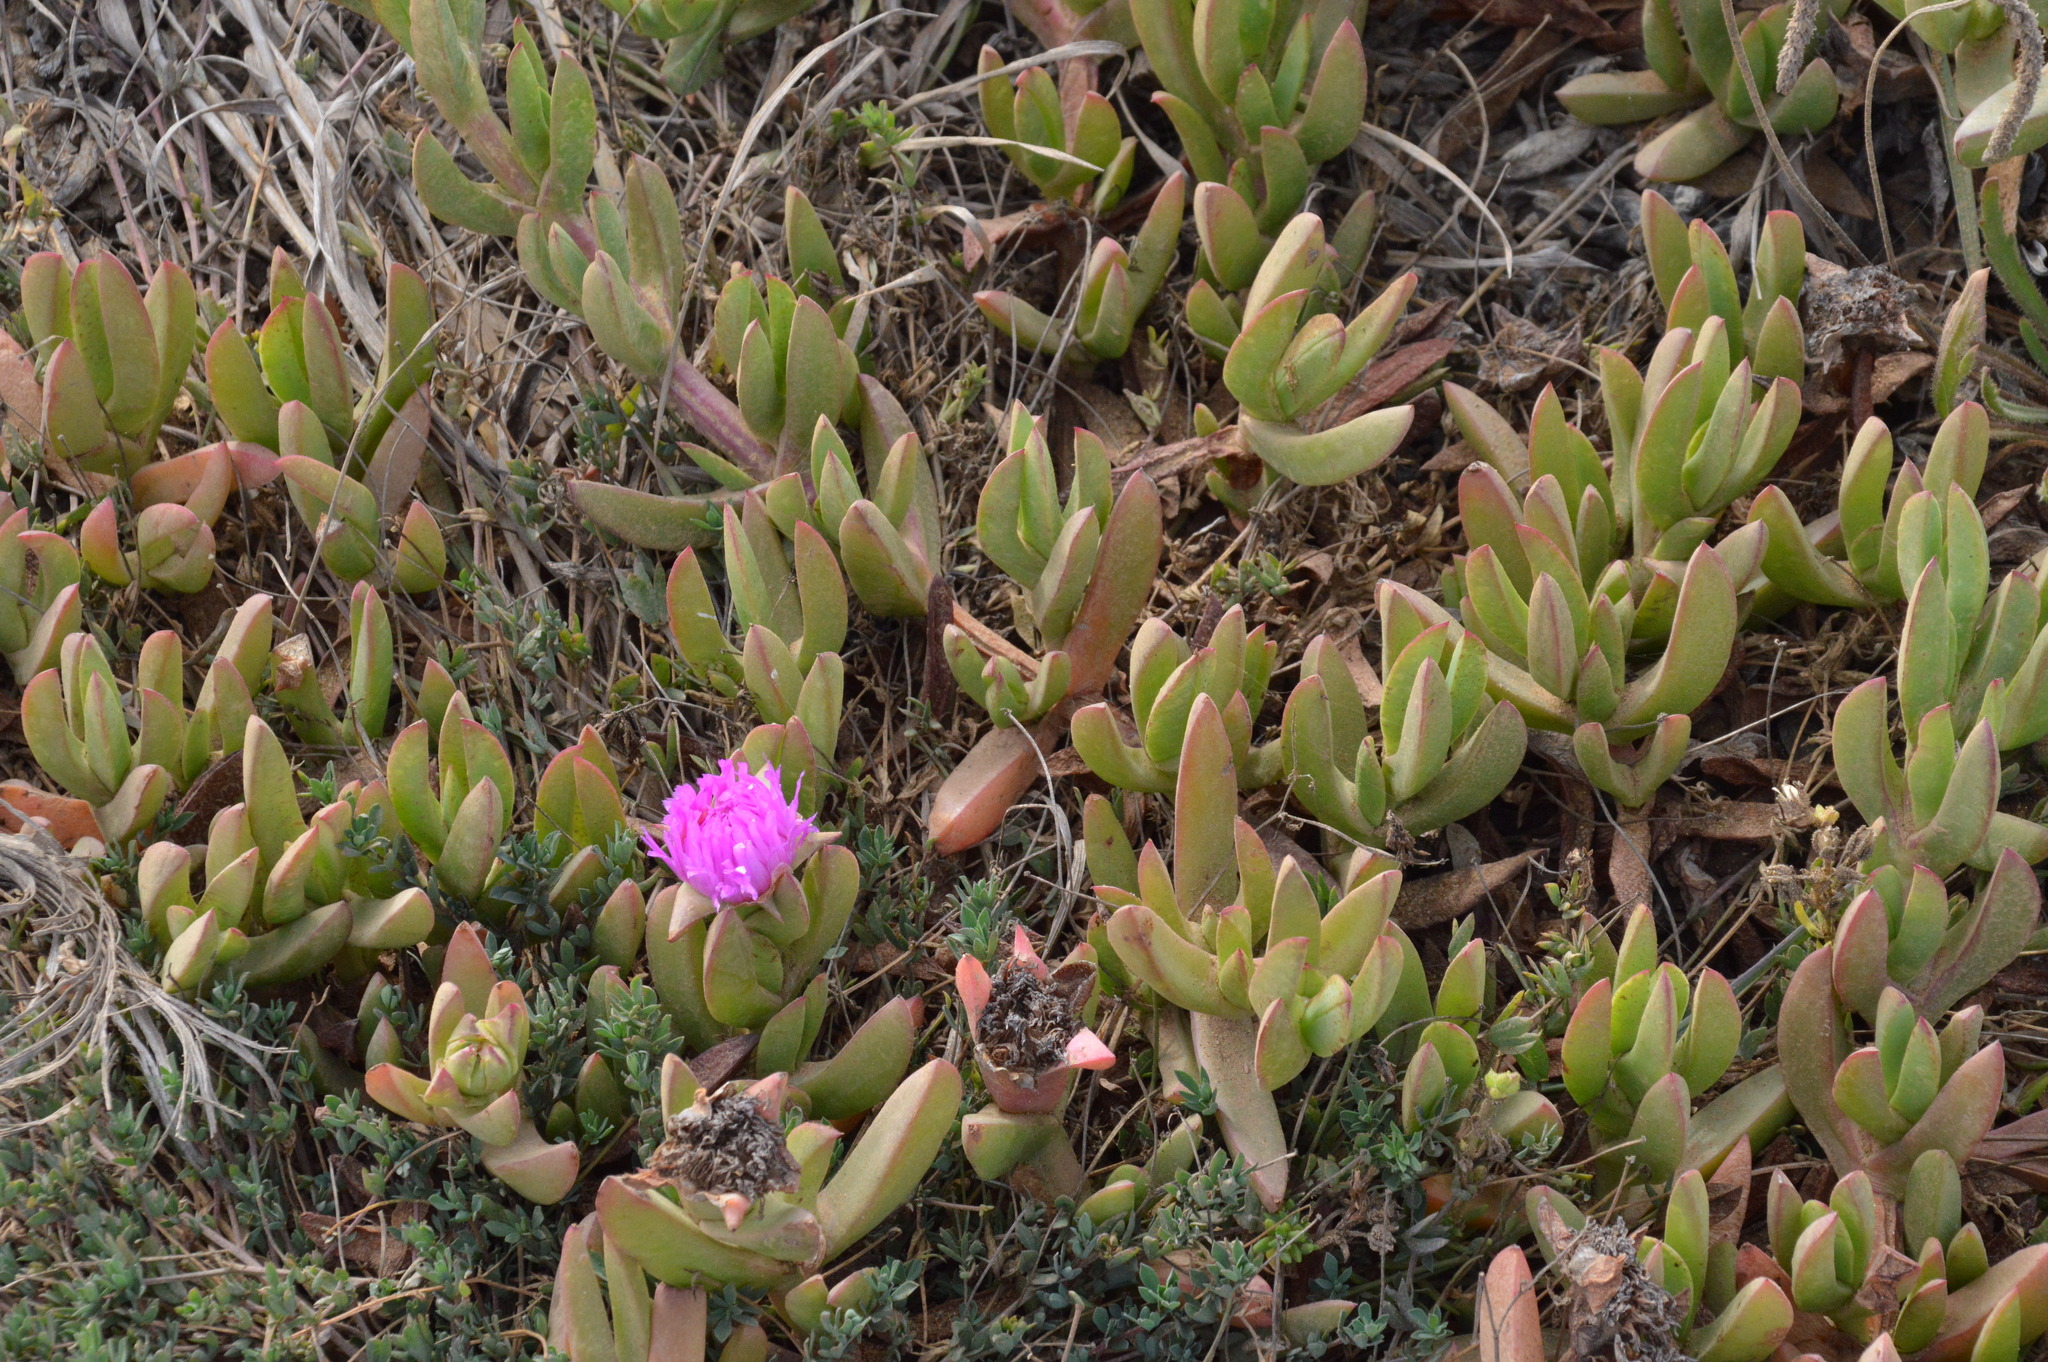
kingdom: Plantae
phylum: Tracheophyta
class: Magnoliopsida
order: Caryophyllales
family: Aizoaceae
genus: Carpobrotus
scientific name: Carpobrotus chilensis
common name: Sea fig
